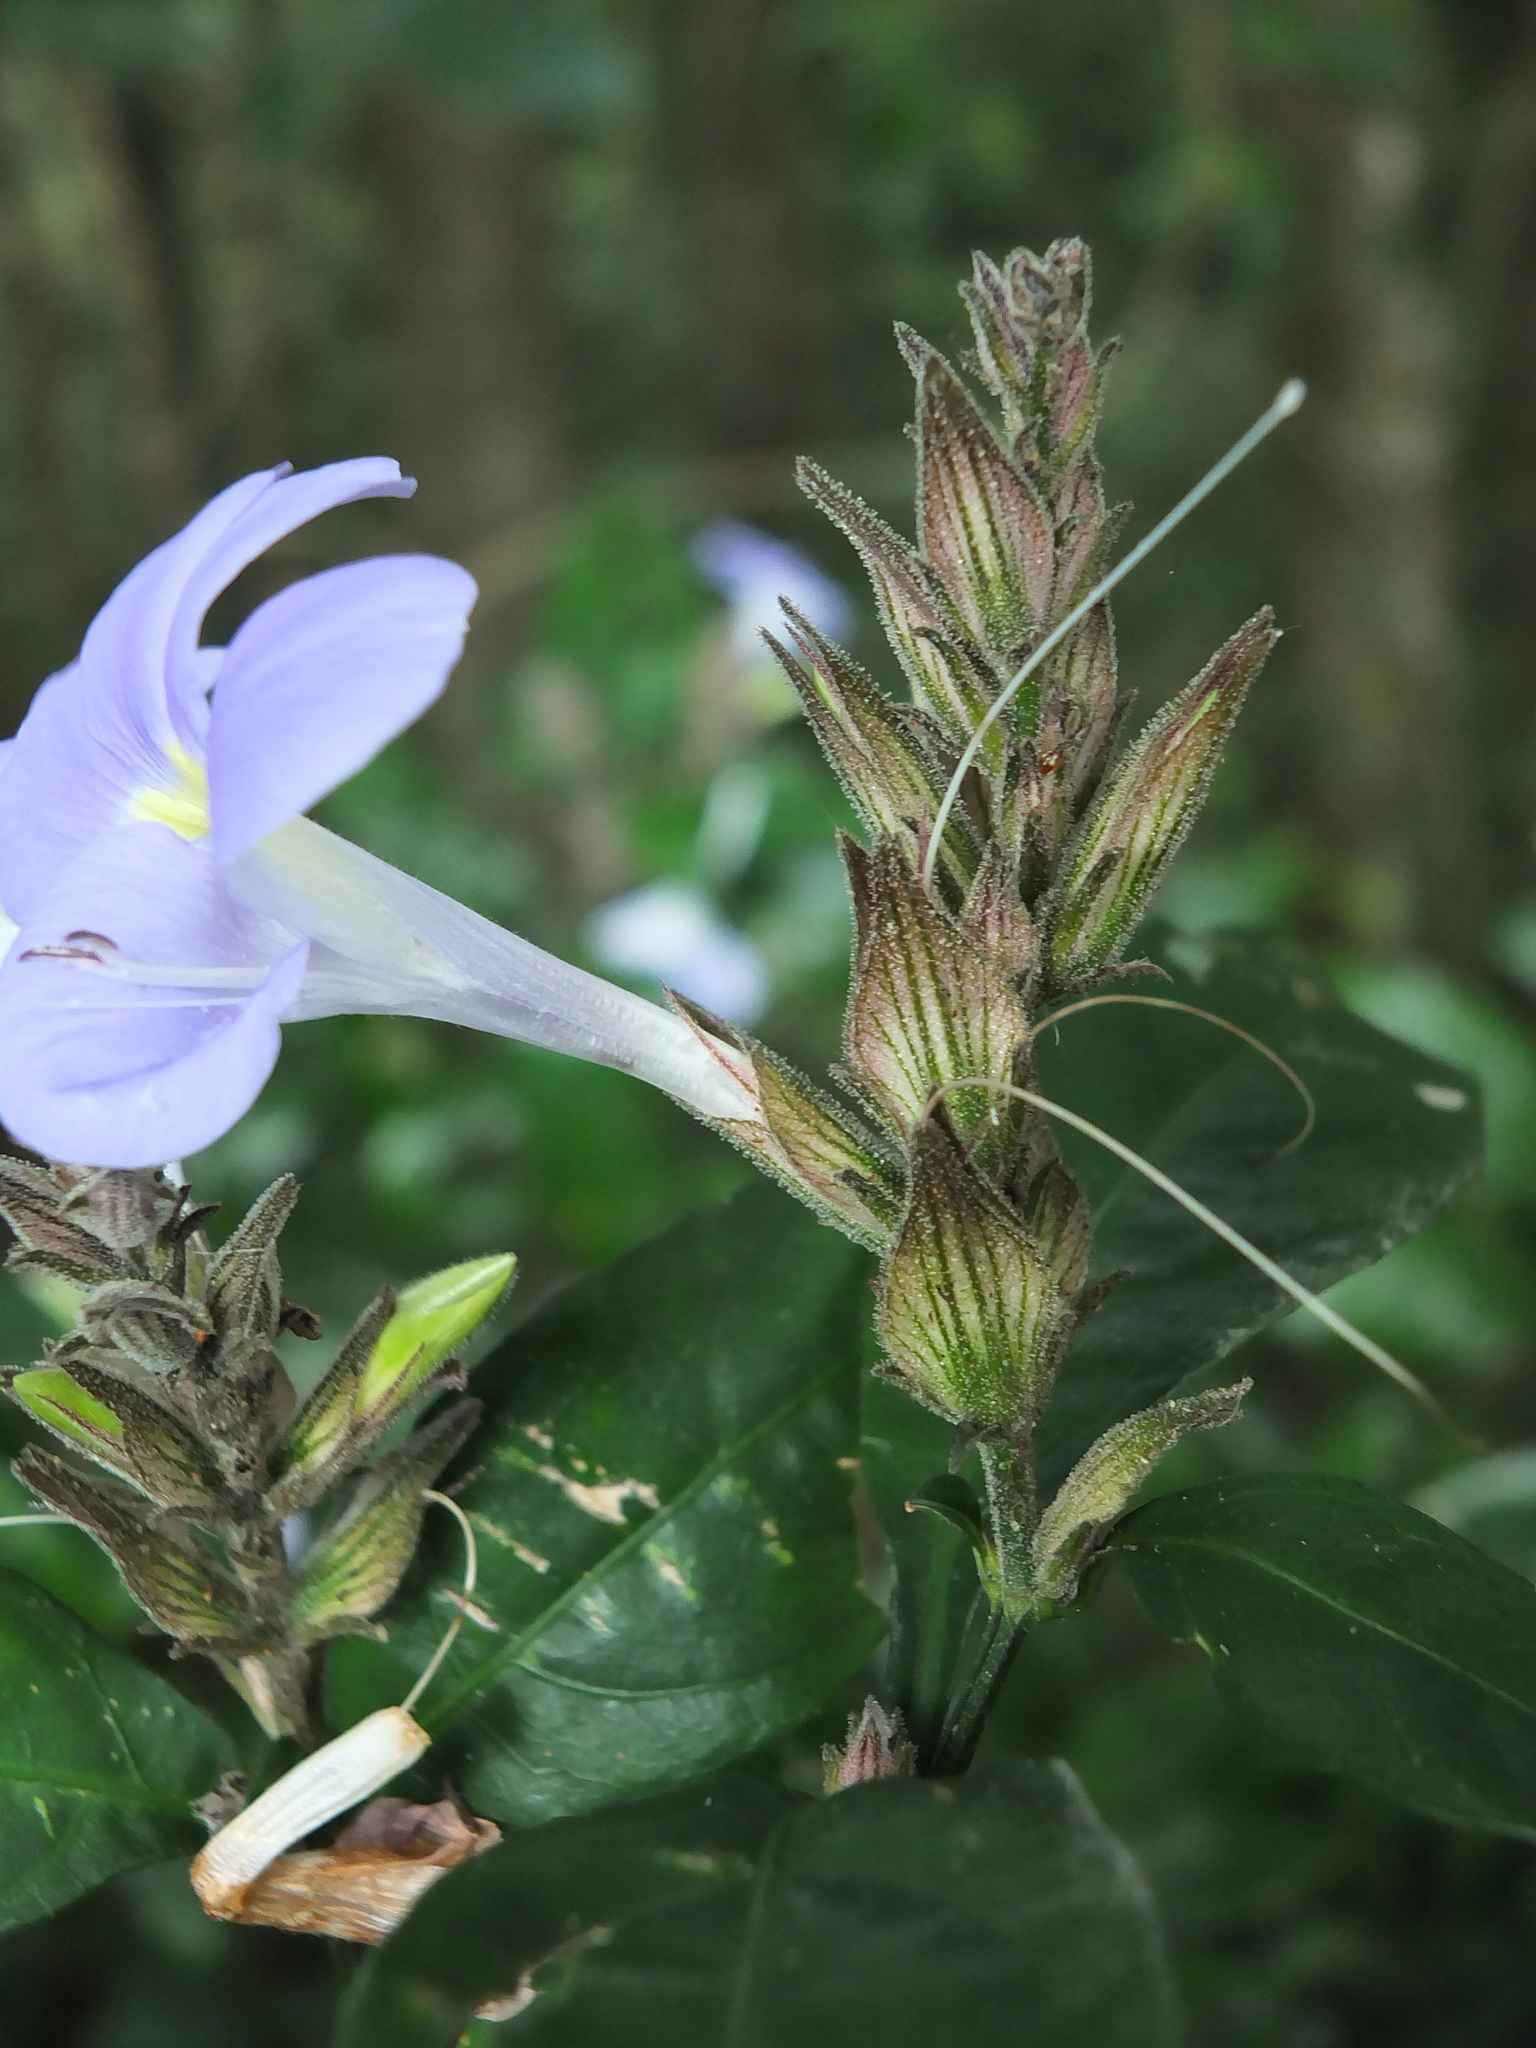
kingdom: Plantae
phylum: Tracheophyta
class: Magnoliopsida
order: Lamiales
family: Acanthaceae
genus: Barleria
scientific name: Barleria courtallica
